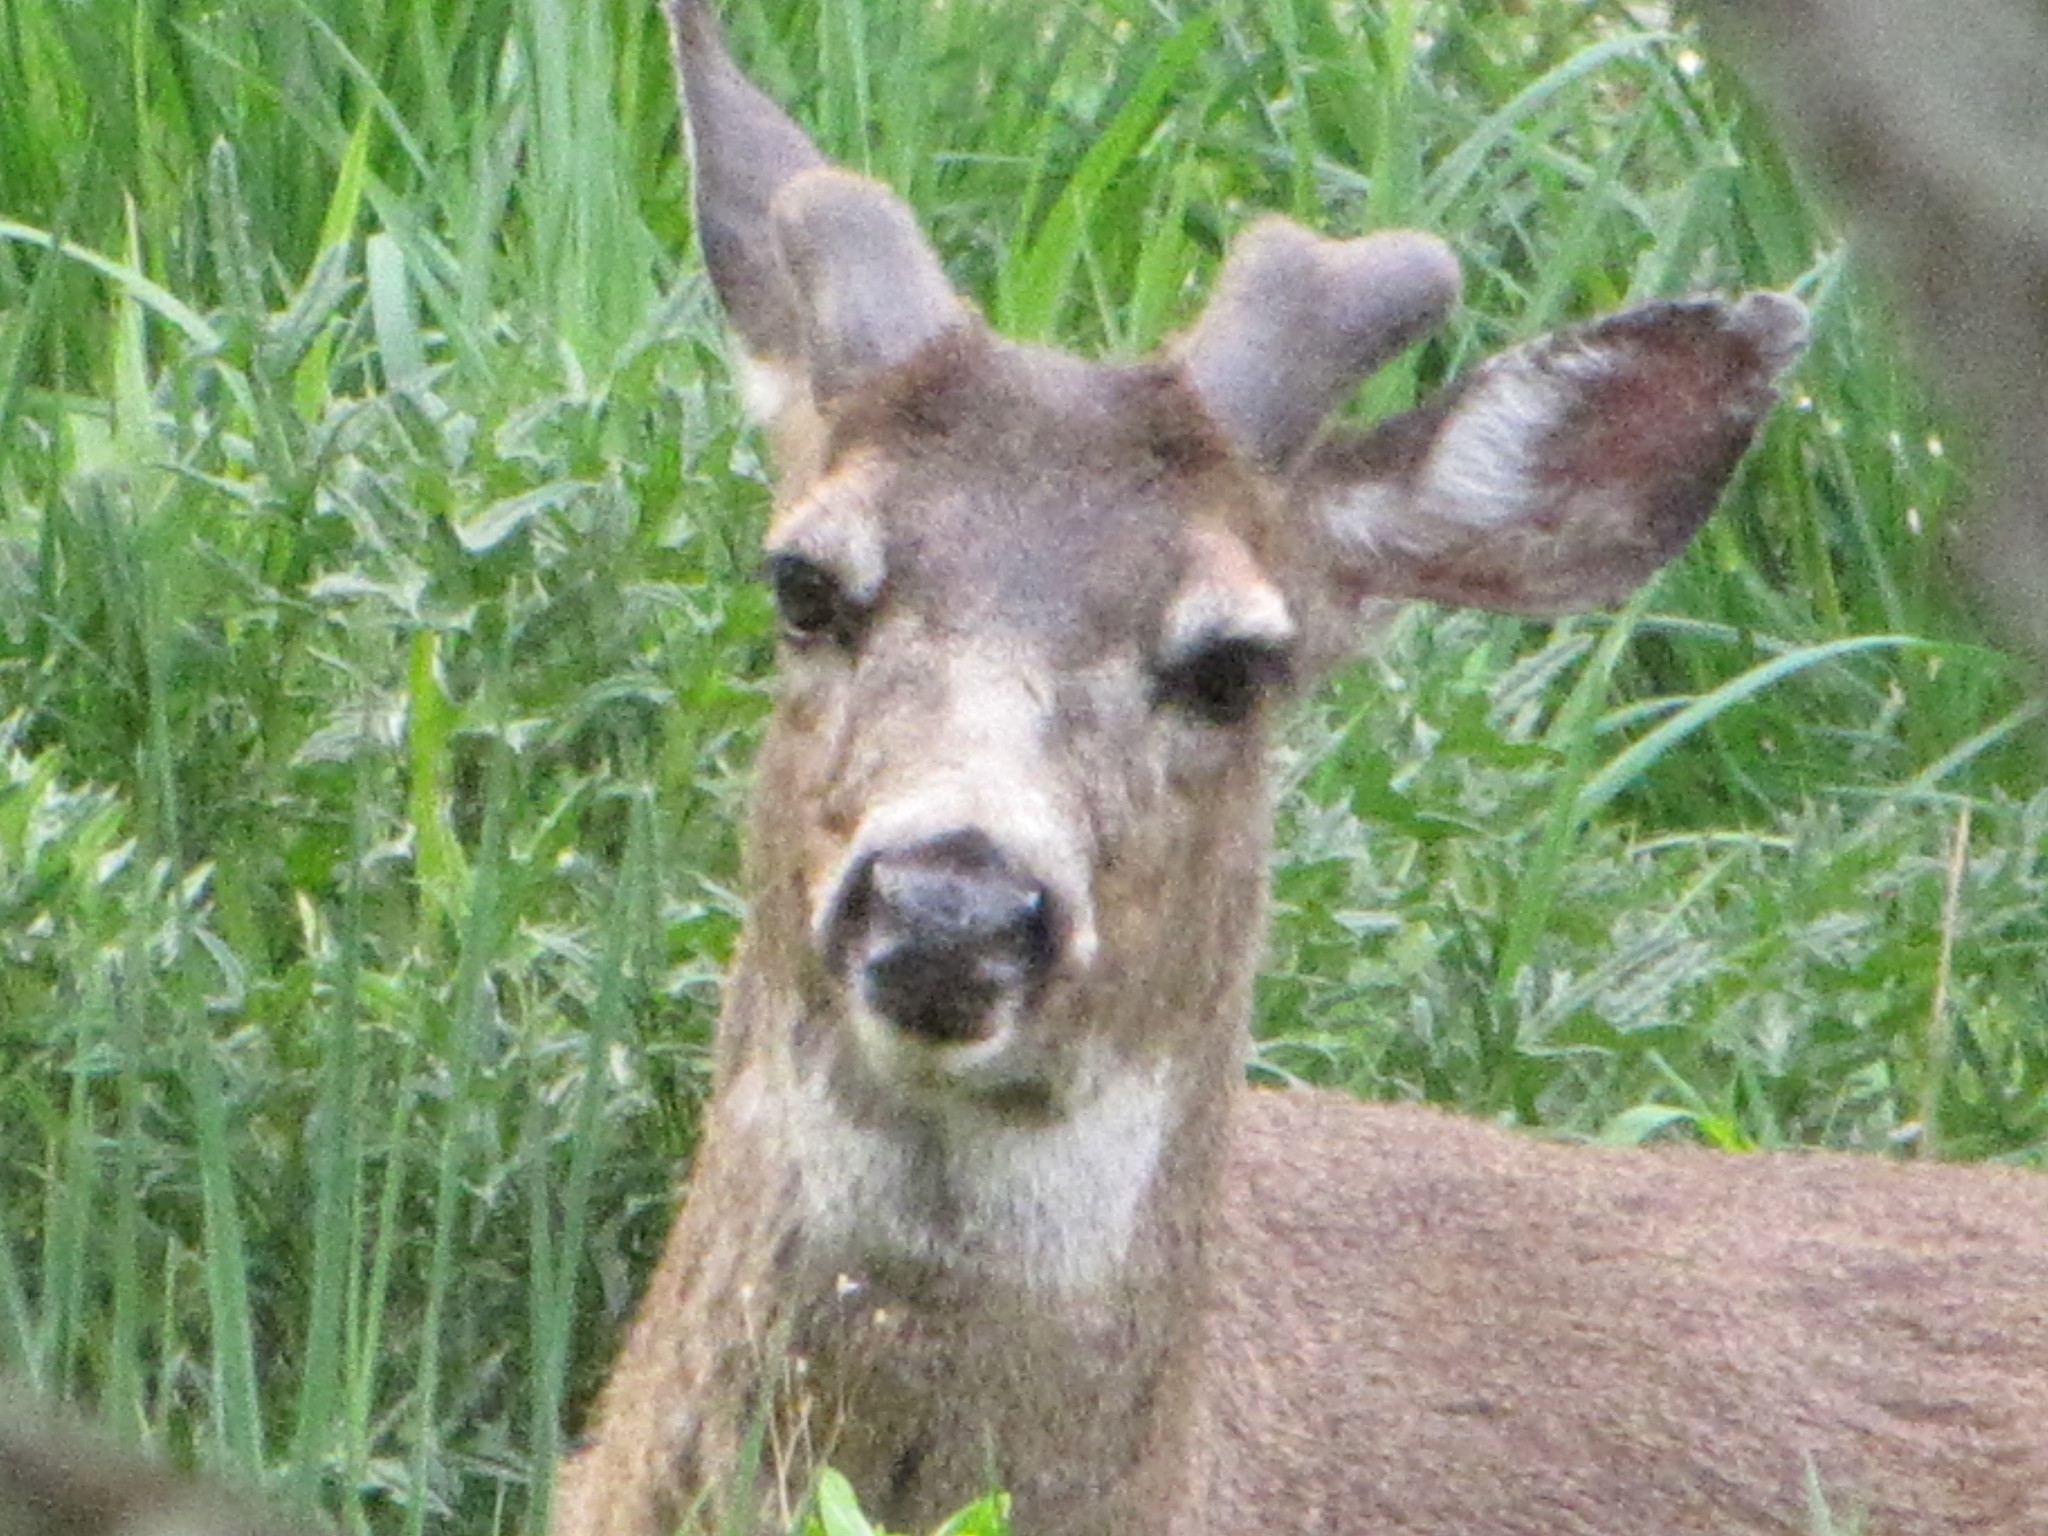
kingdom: Animalia
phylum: Chordata
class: Mammalia
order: Artiodactyla
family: Cervidae
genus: Odocoileus
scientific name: Odocoileus hemionus
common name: Mule deer
